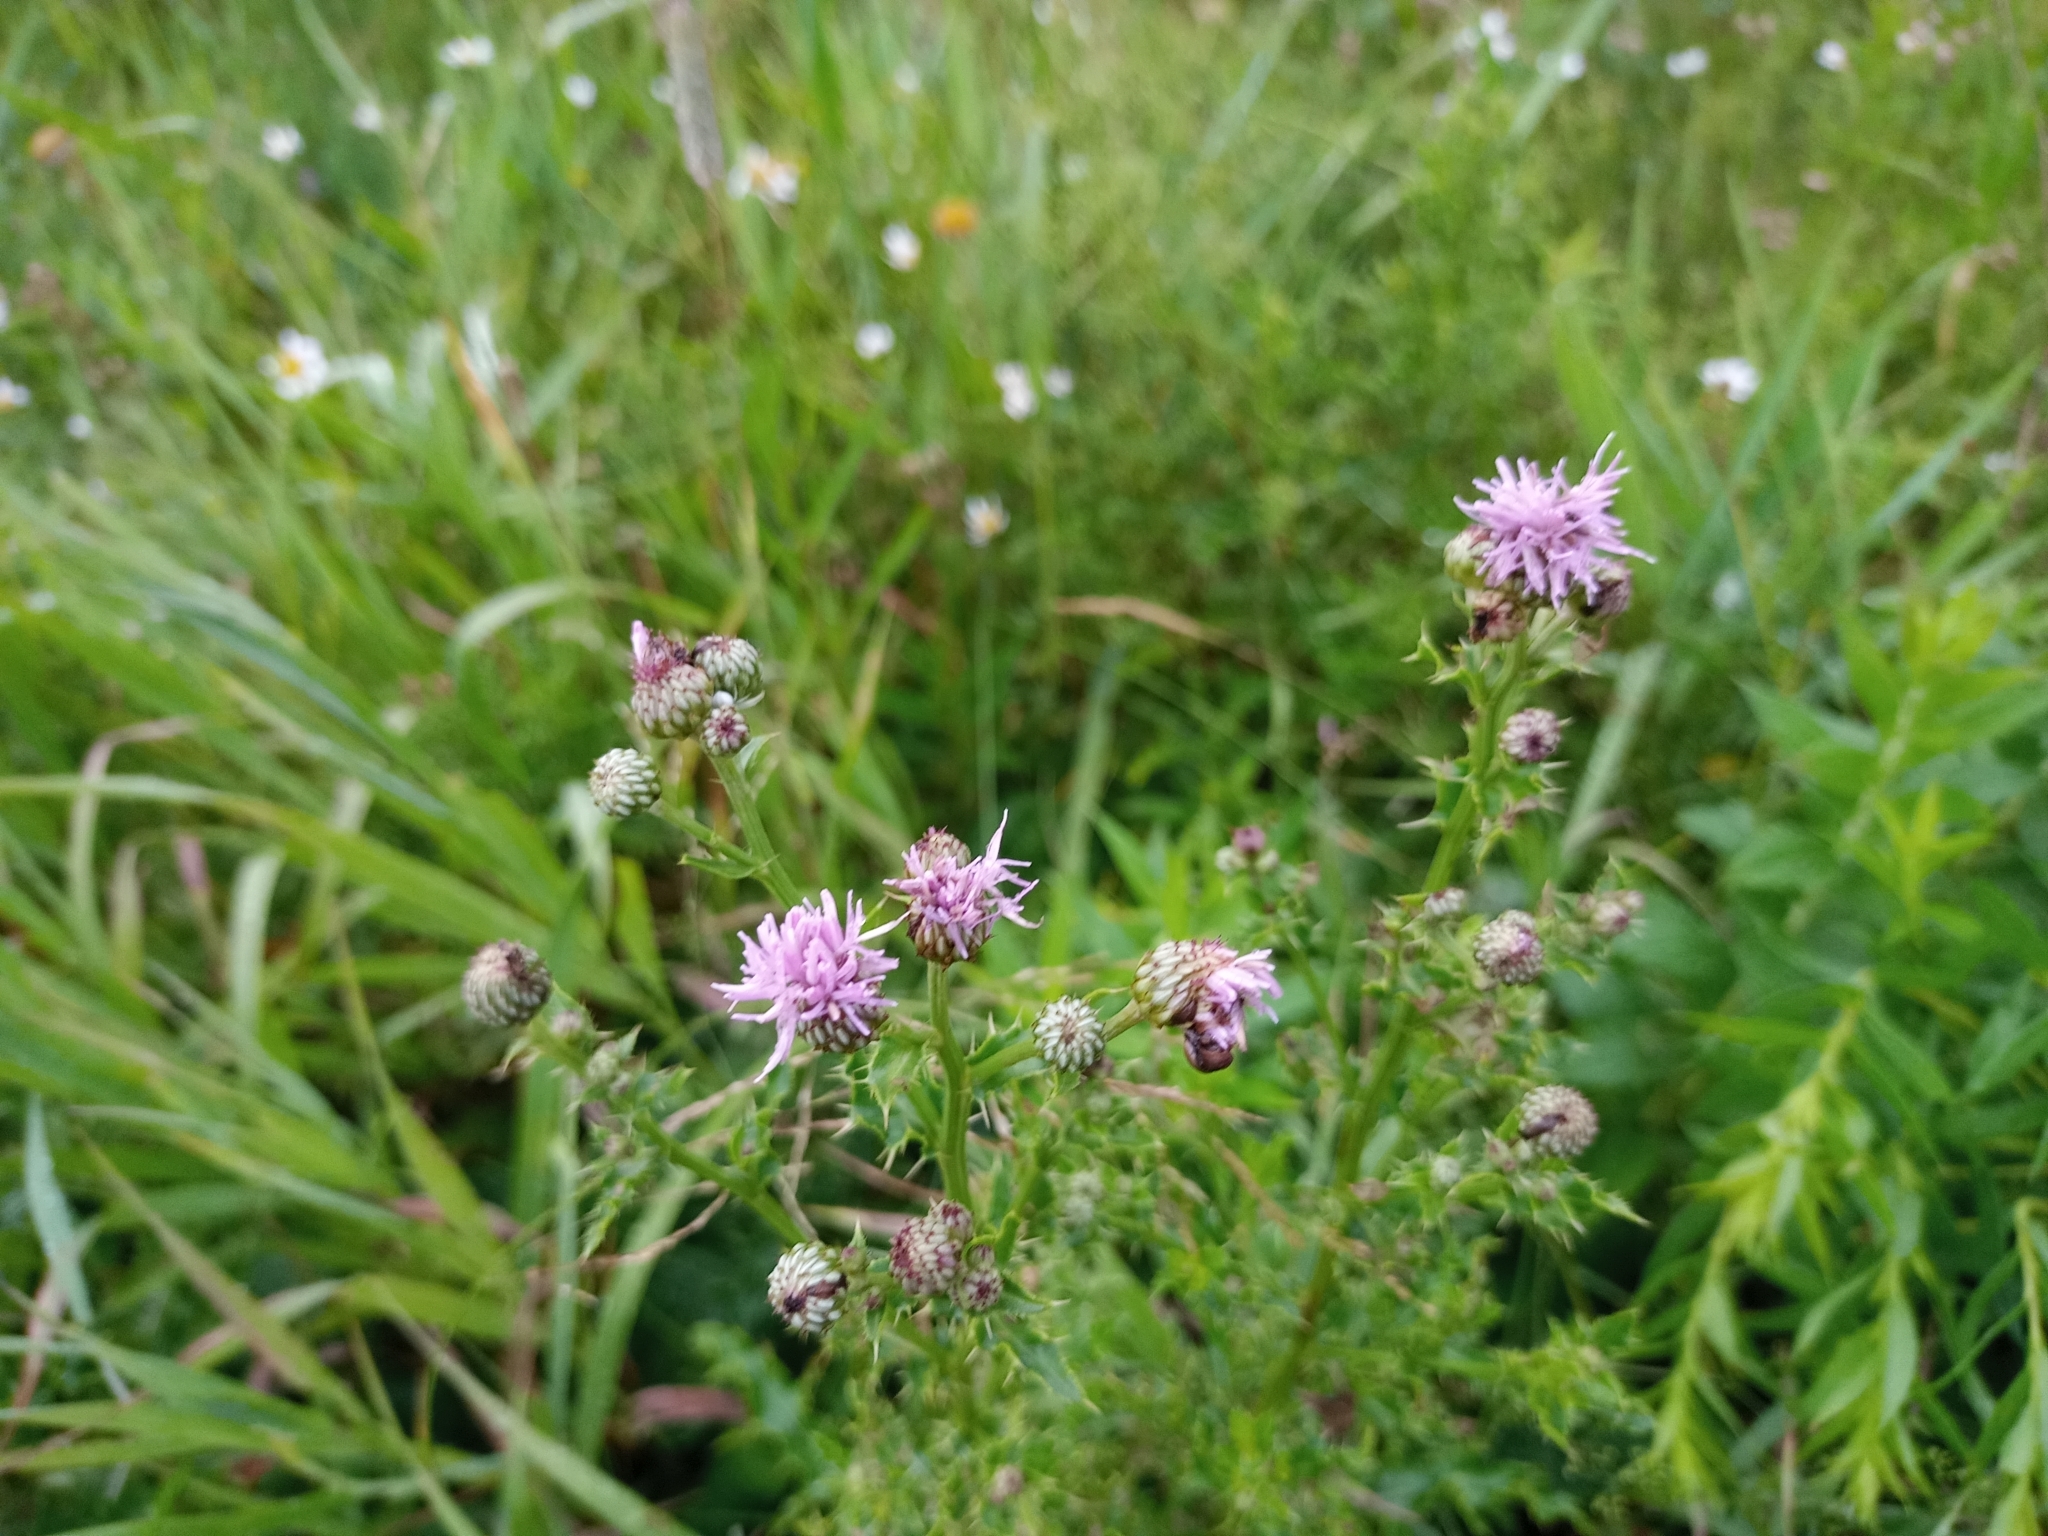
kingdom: Plantae
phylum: Tracheophyta
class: Magnoliopsida
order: Asterales
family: Asteraceae
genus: Cirsium
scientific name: Cirsium arvense
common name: Creeping thistle
